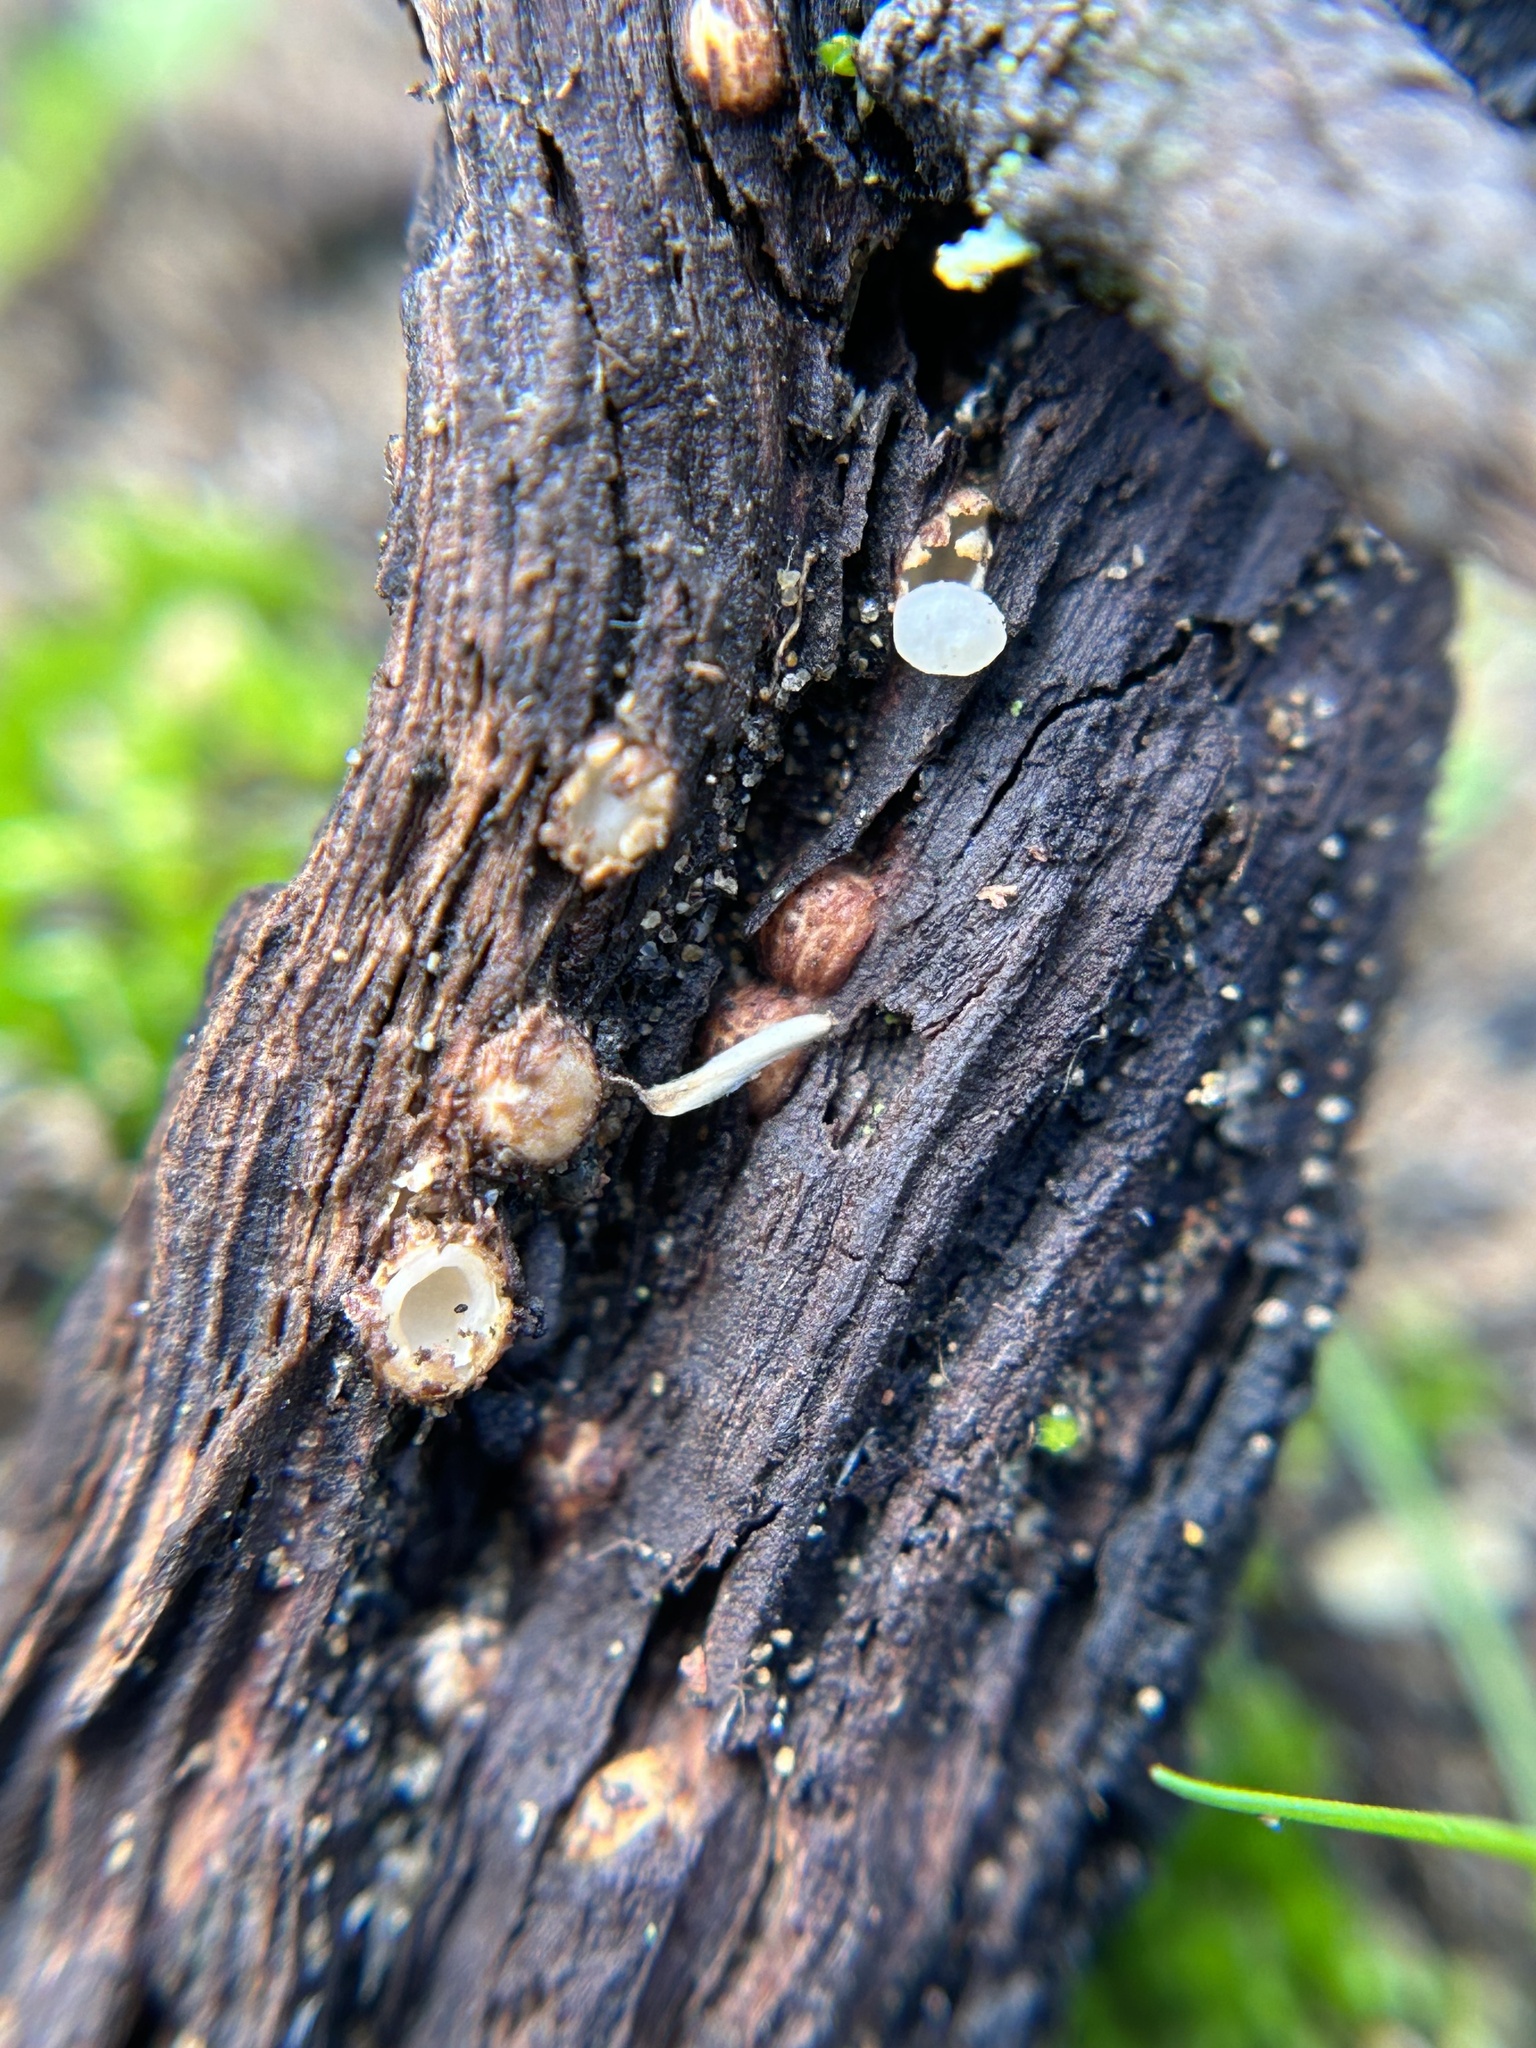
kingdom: Fungi
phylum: Basidiomycota
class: Agaricomycetes
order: Geastrales
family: Geastraceae
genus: Sphaerobolus
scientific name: Sphaerobolus stellatus
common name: Cannon fungus
